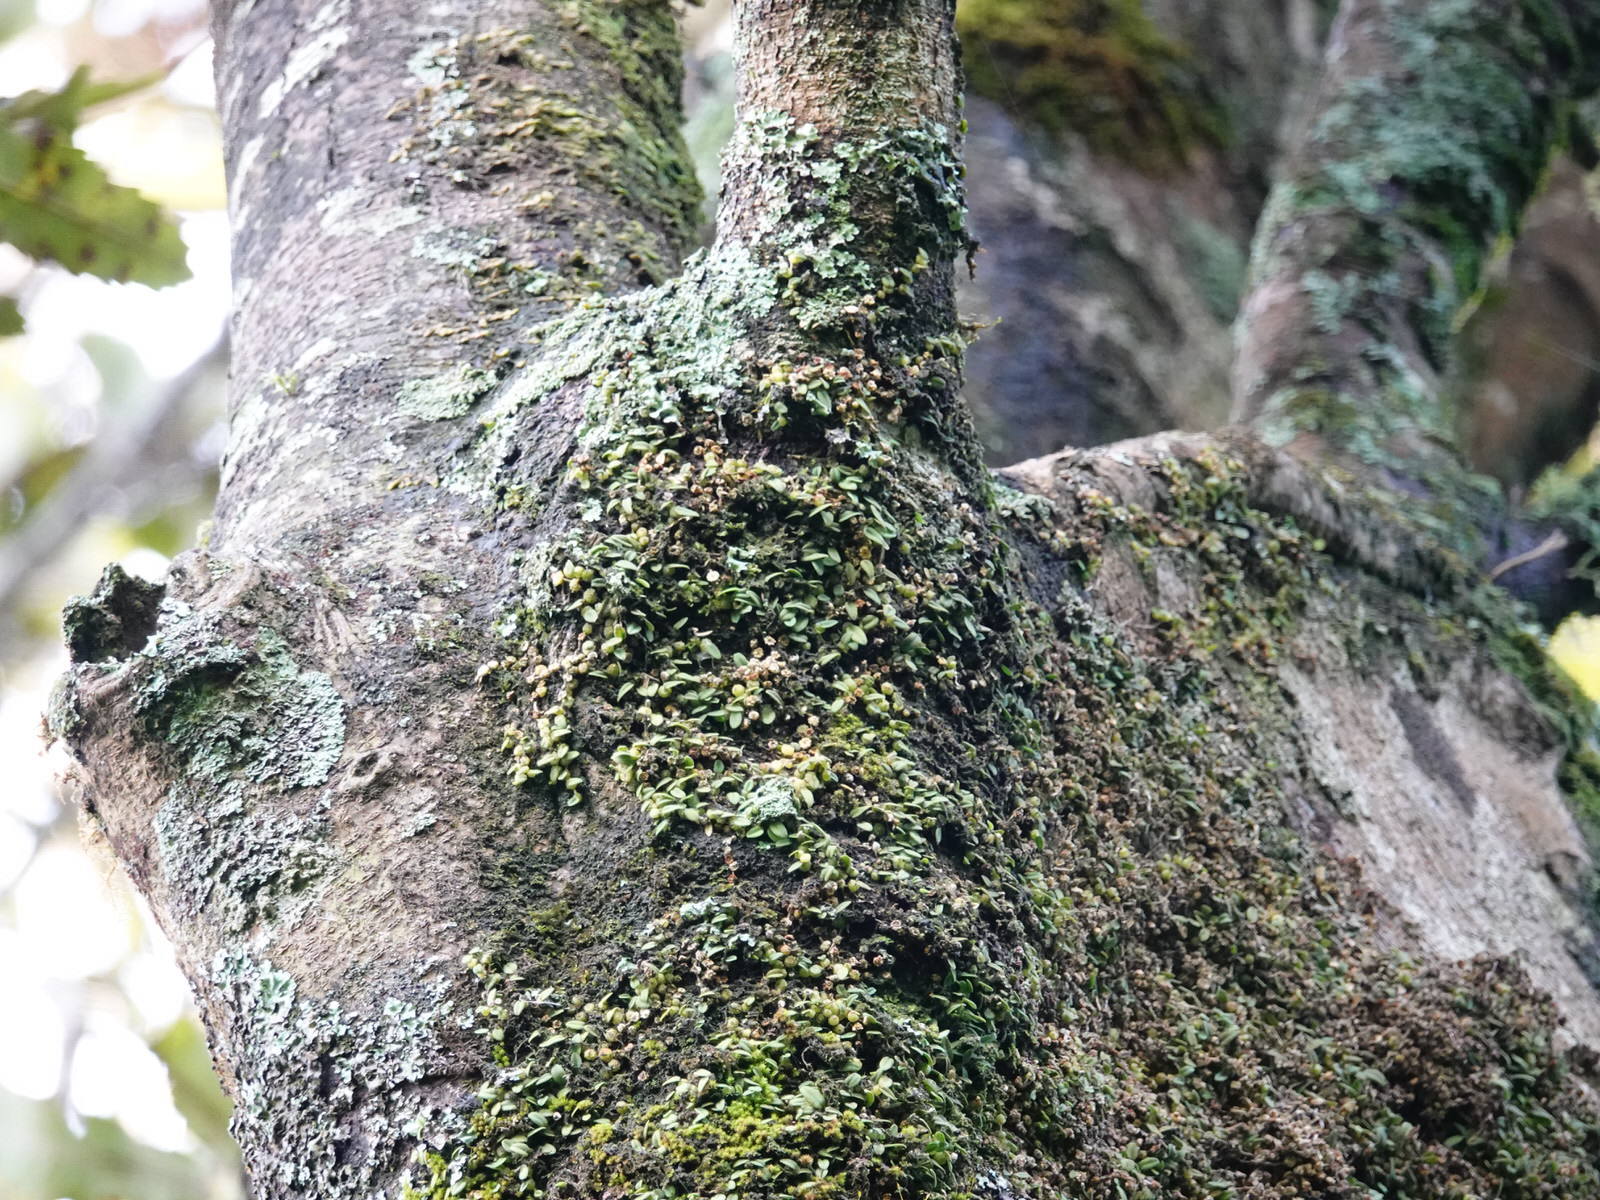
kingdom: Plantae
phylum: Tracheophyta
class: Liliopsida
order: Asparagales
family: Orchidaceae
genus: Bulbophyllum
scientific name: Bulbophyllum pygmaeum
